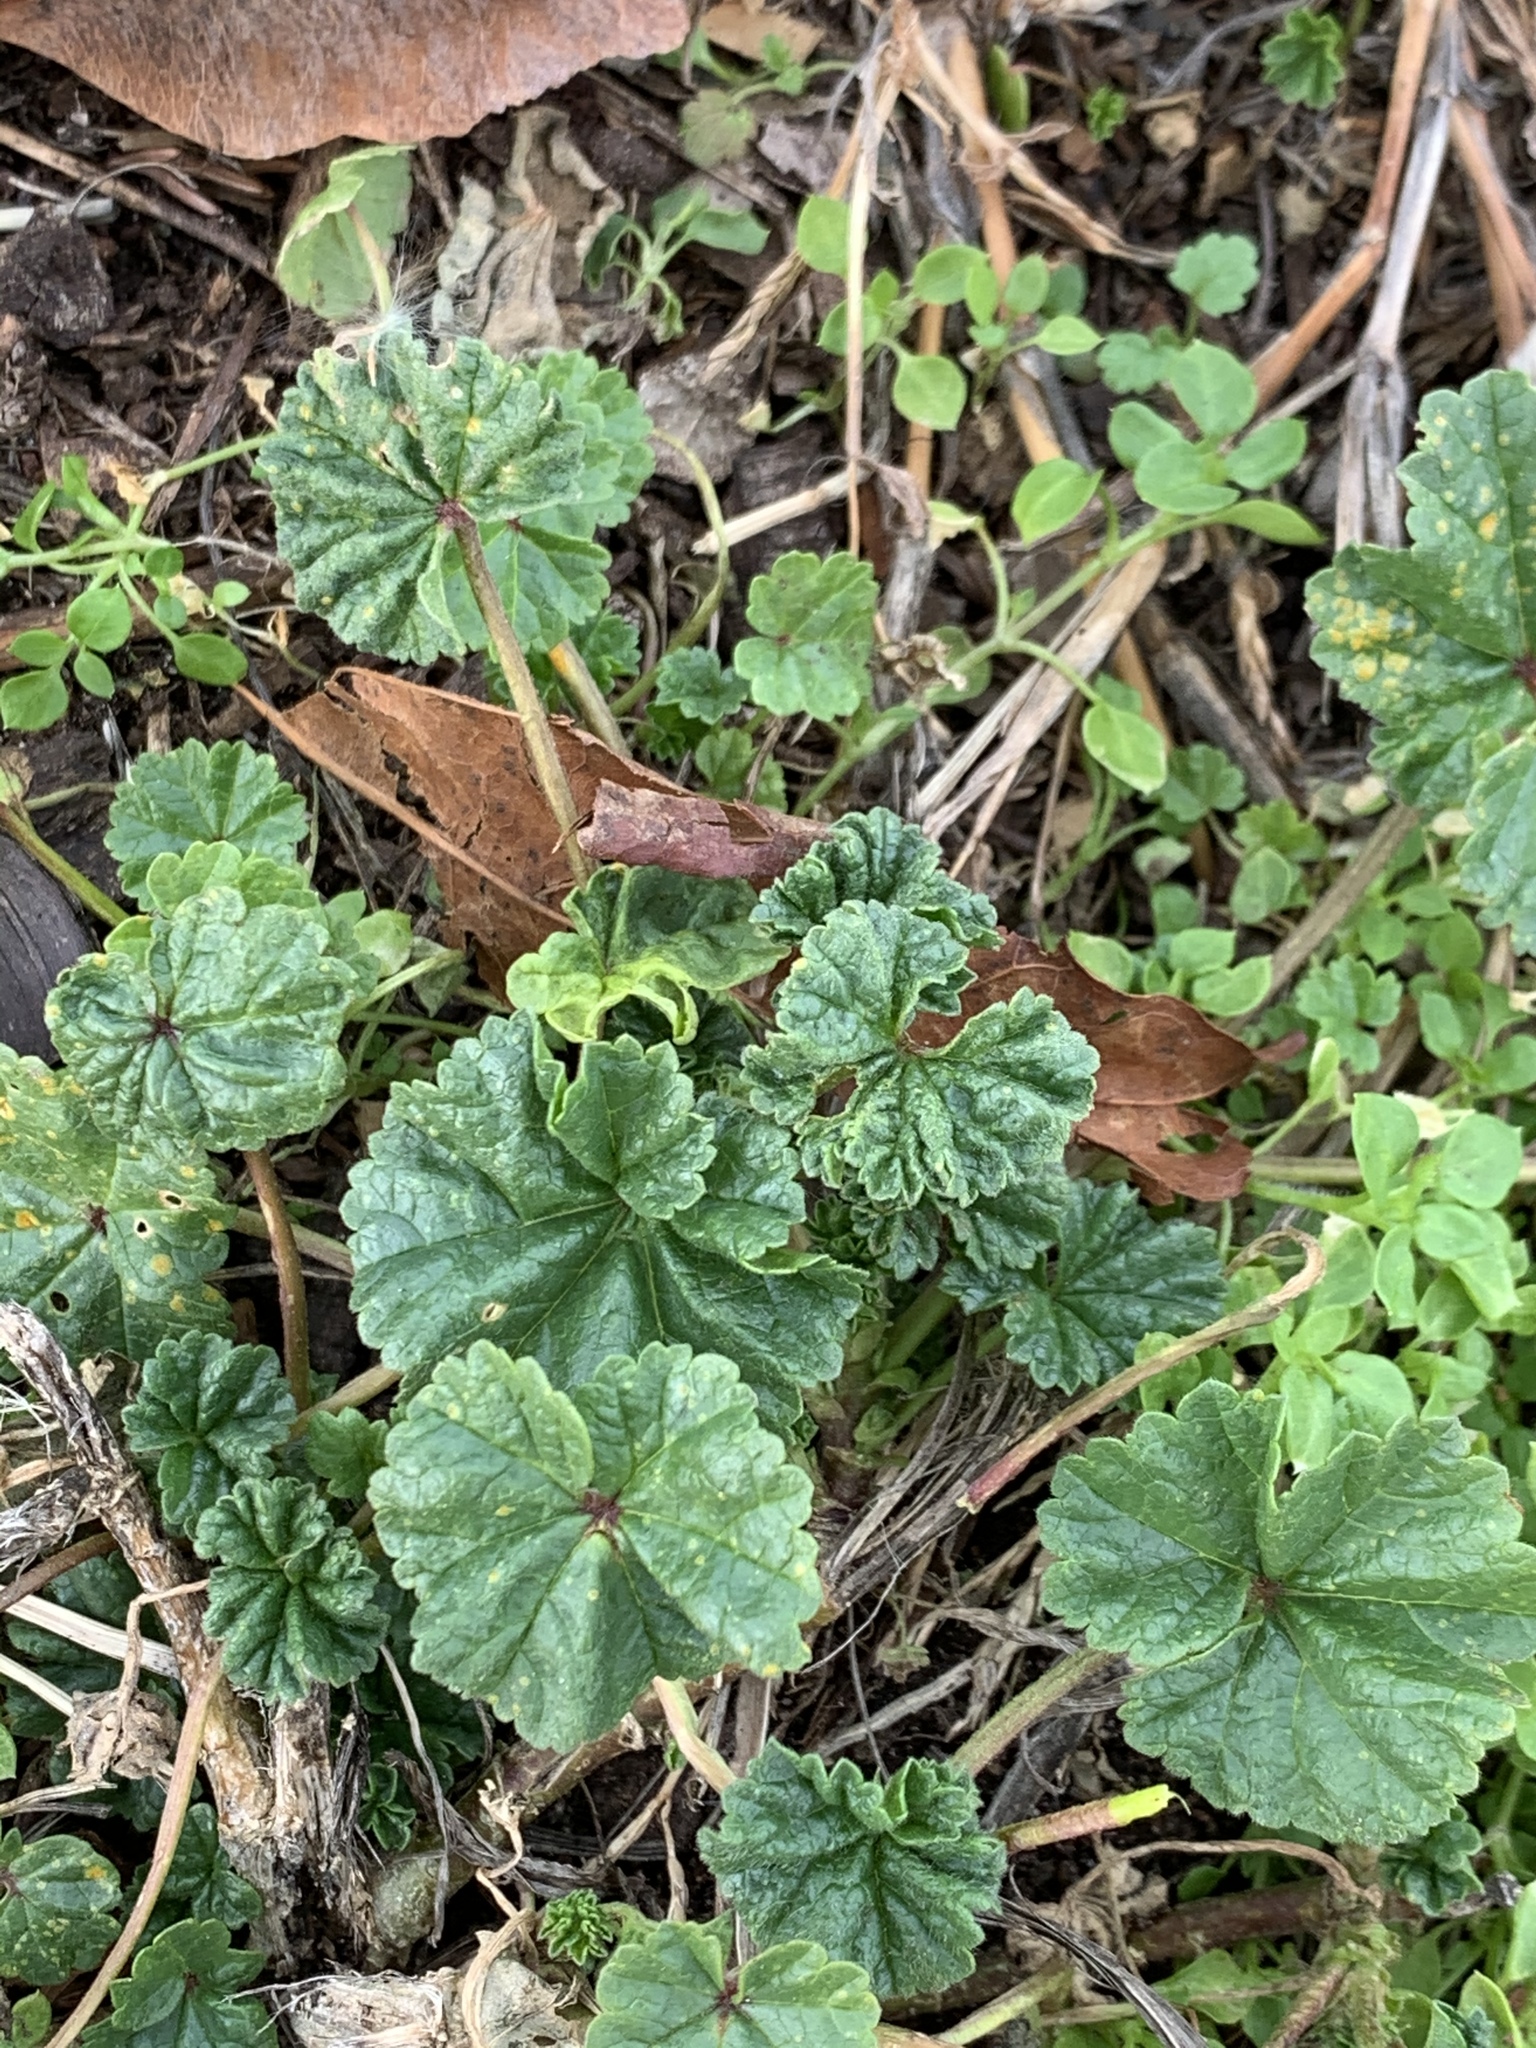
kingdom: Plantae
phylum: Tracheophyta
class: Magnoliopsida
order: Malvales
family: Malvaceae
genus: Malva
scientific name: Malva neglecta
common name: Common mallow
